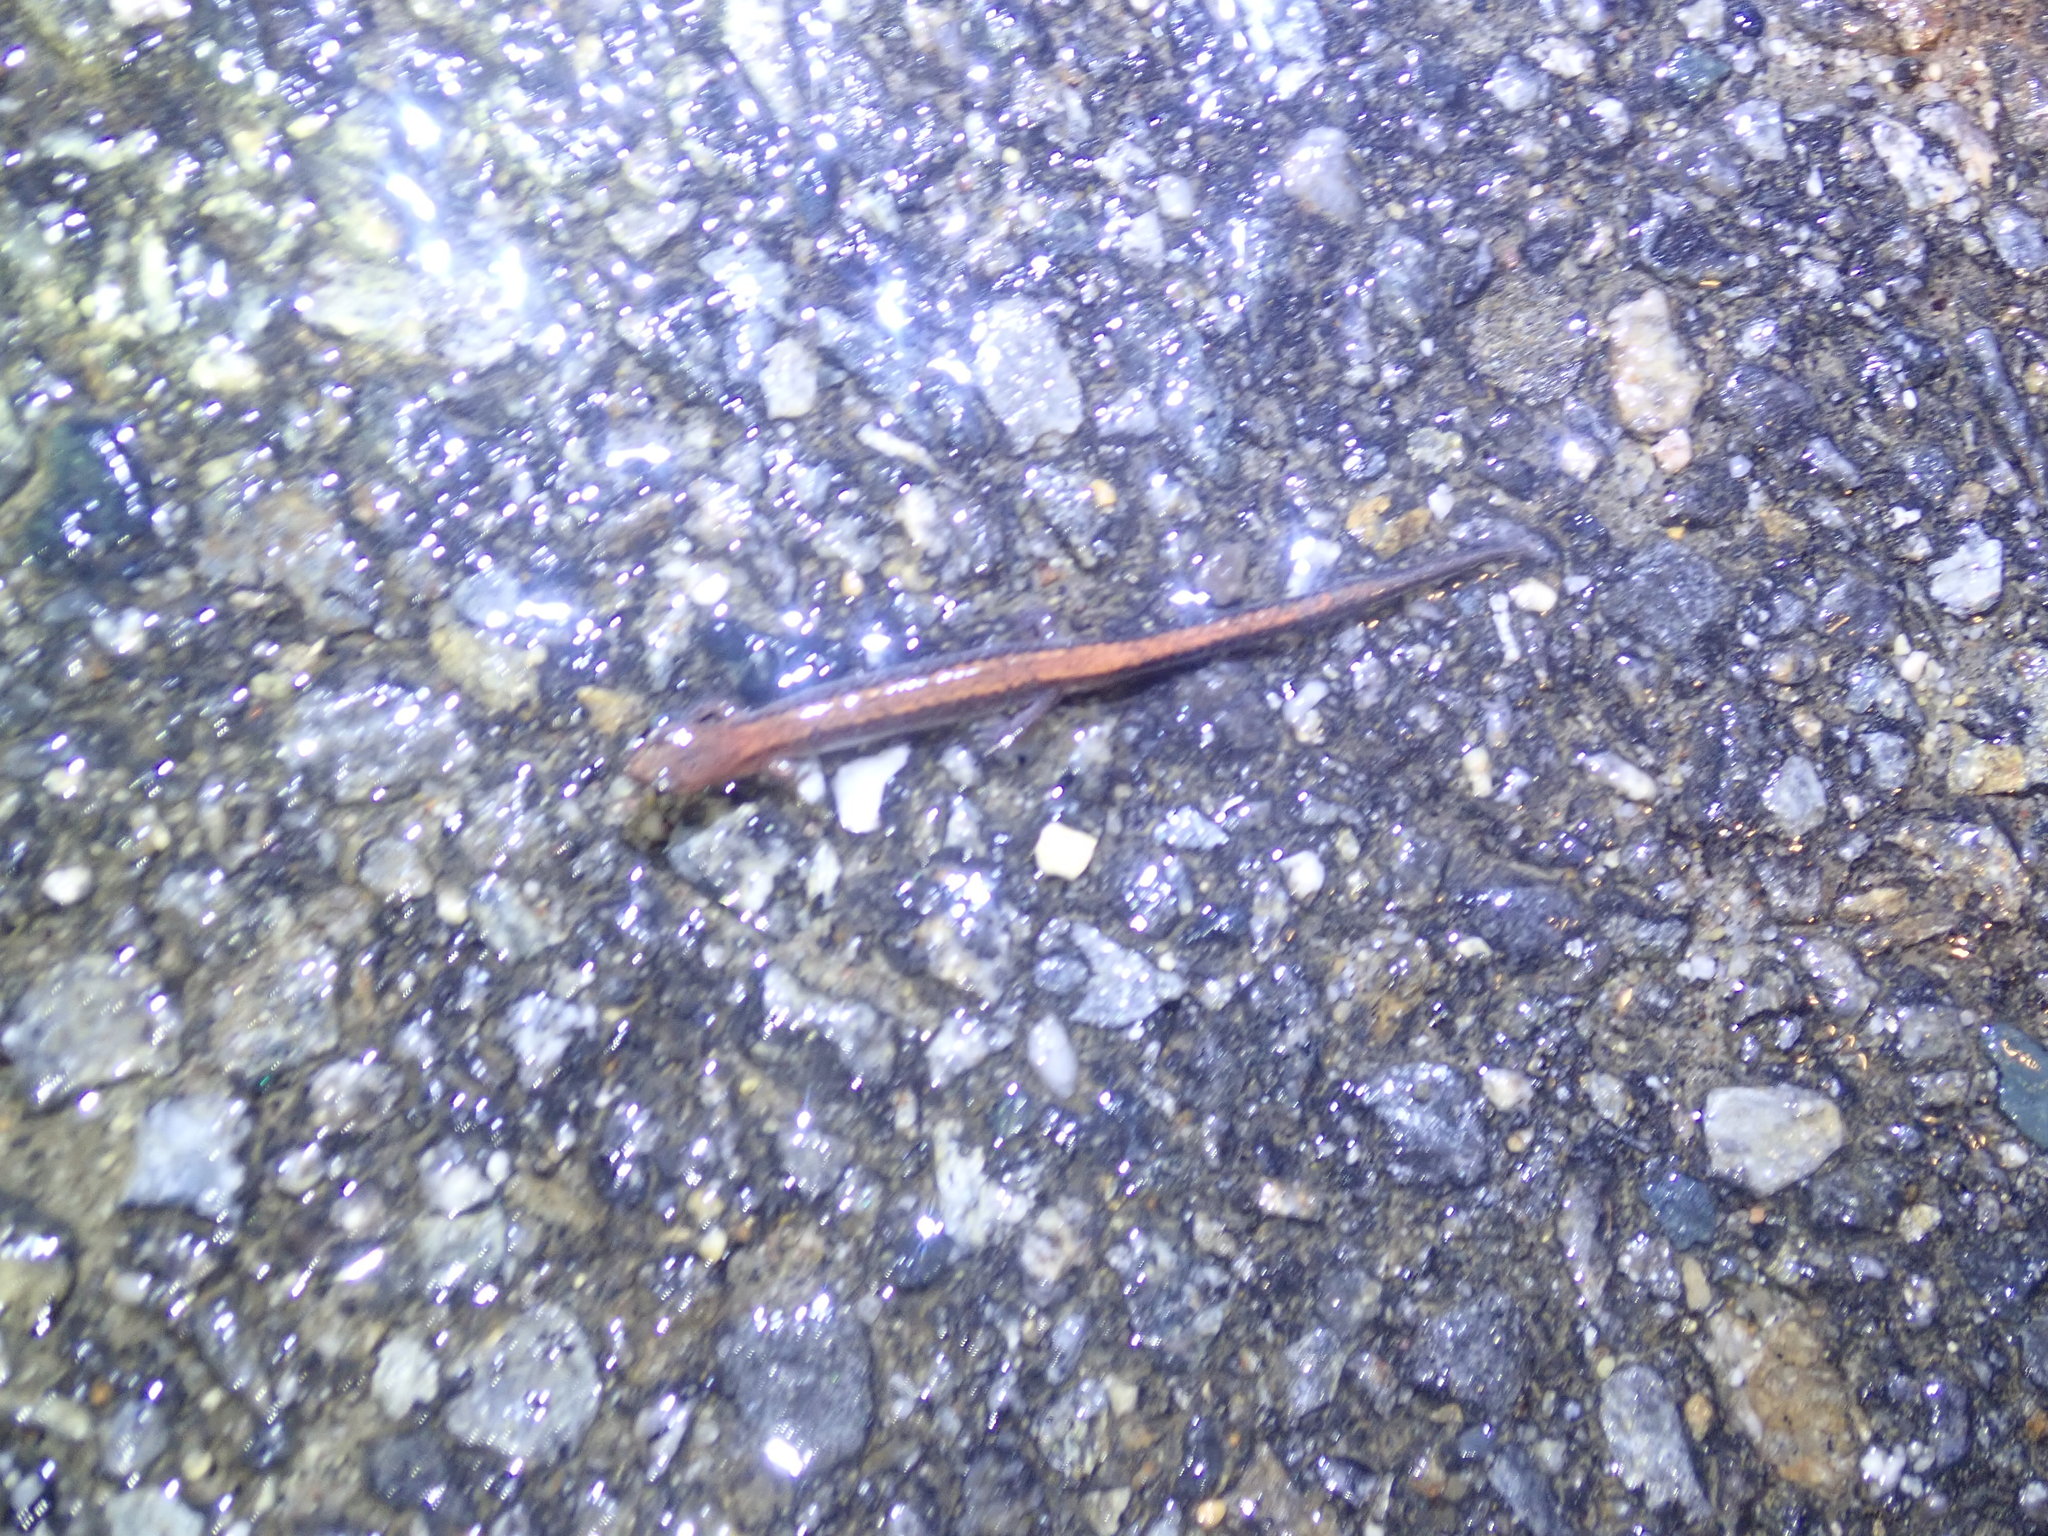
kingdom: Animalia
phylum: Chordata
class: Amphibia
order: Caudata
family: Plethodontidae
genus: Plethodon
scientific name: Plethodon cinereus
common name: Redback salamander
